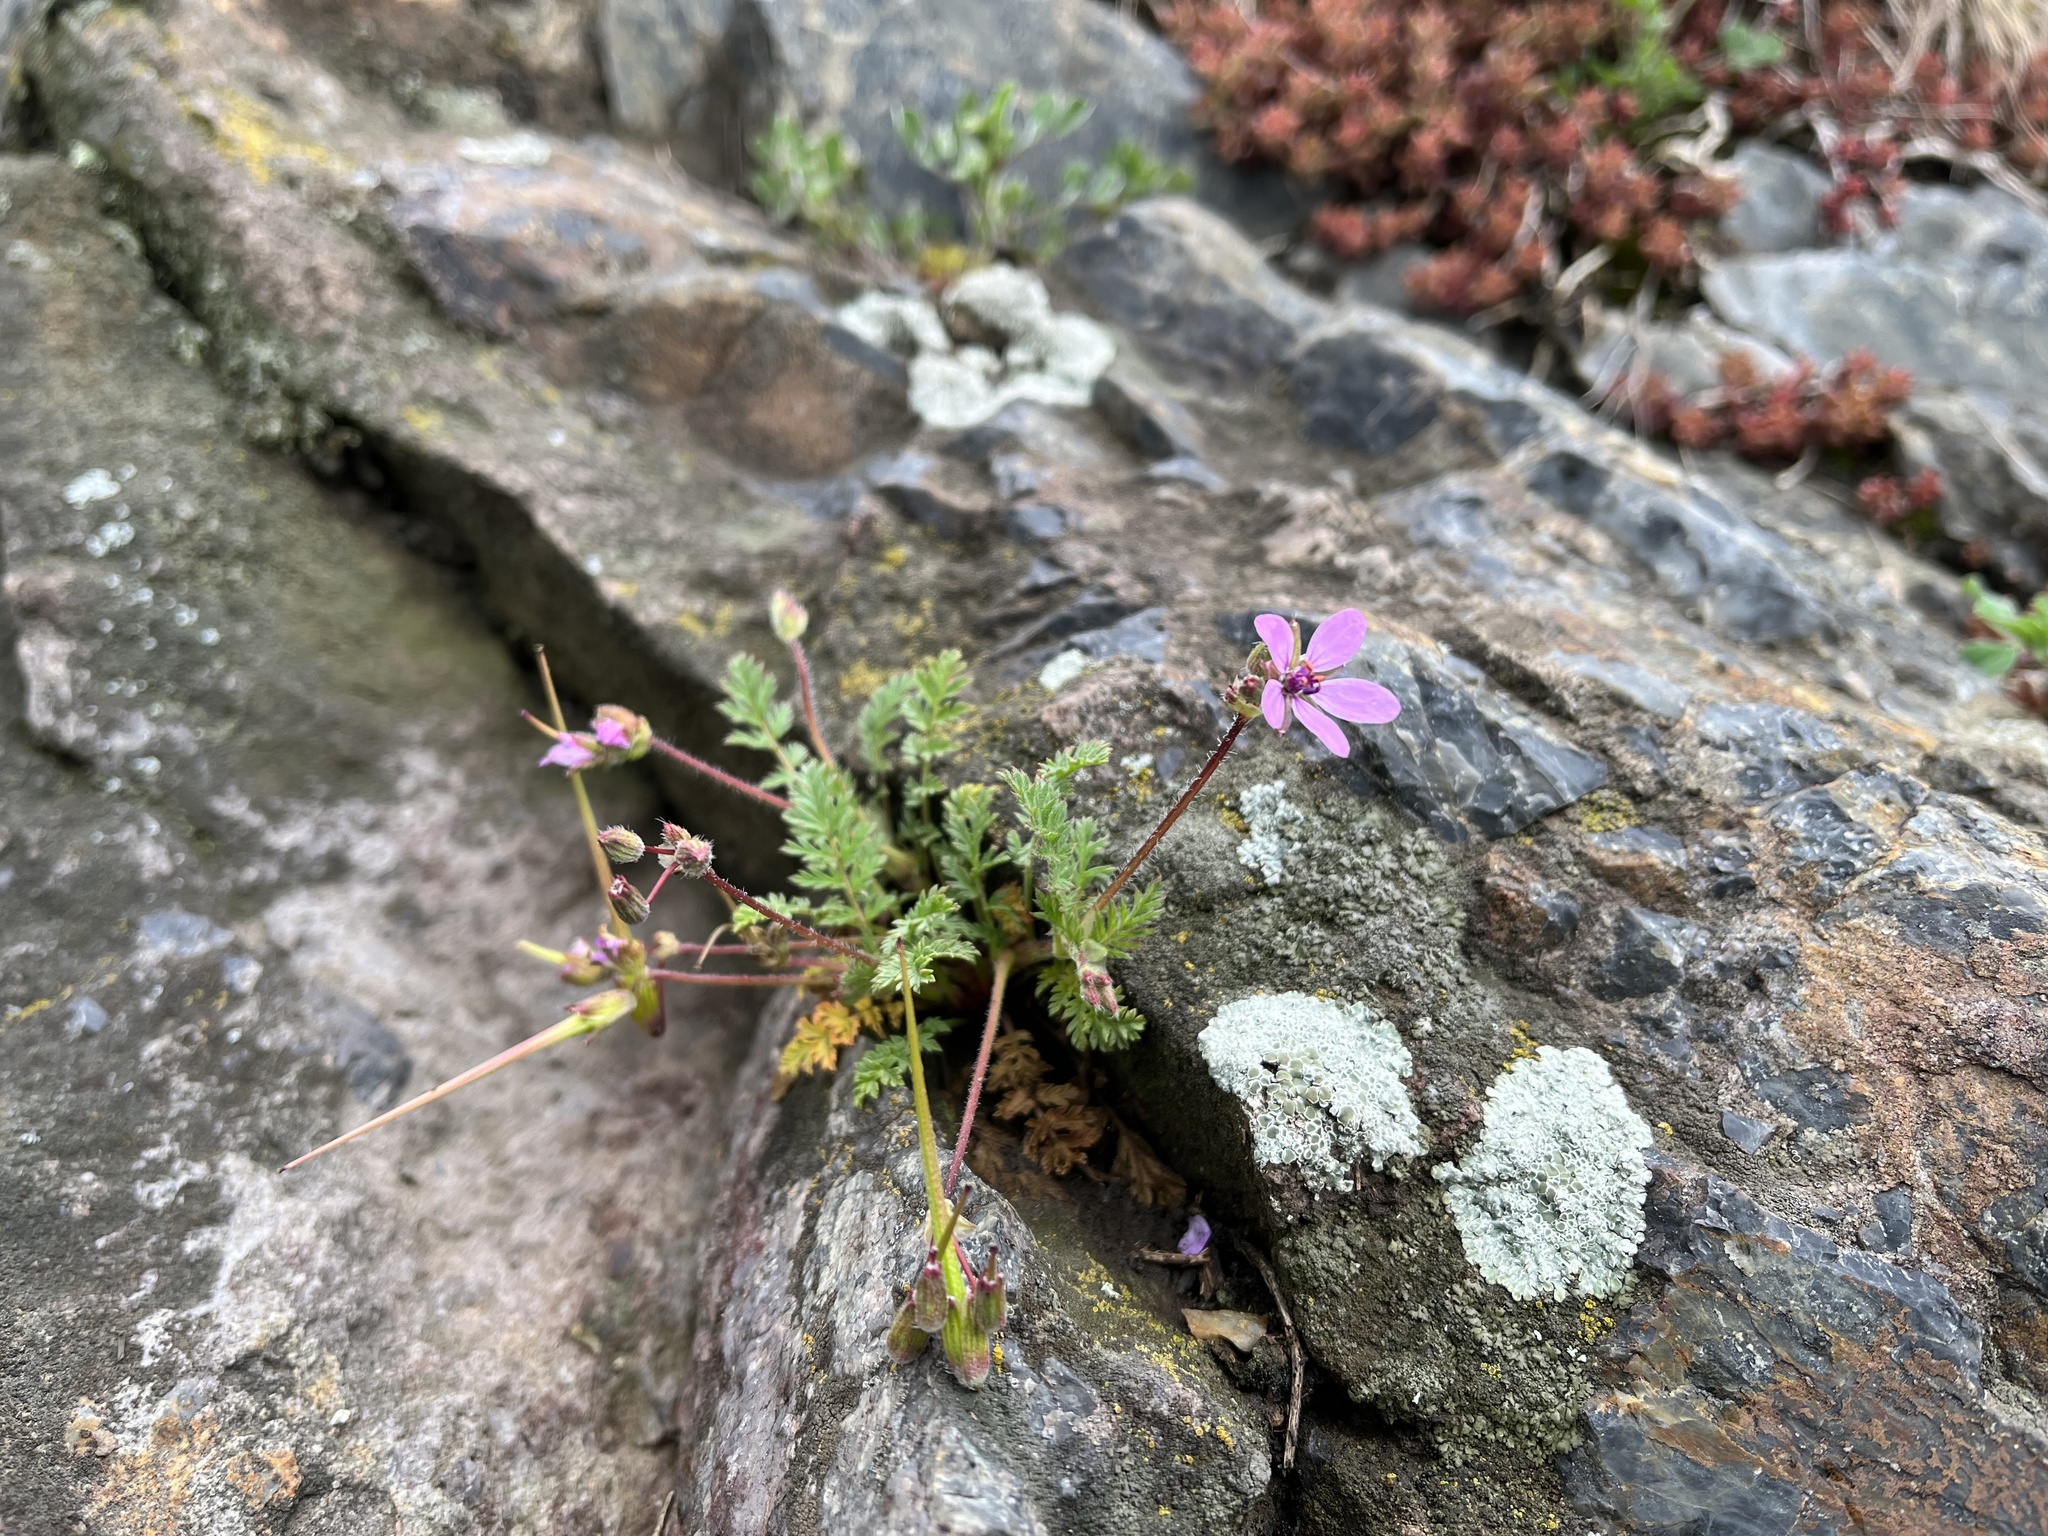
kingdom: Plantae
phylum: Tracheophyta
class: Magnoliopsida
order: Geraniales
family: Geraniaceae
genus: Erodium
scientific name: Erodium cicutarium
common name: Common stork's-bill
